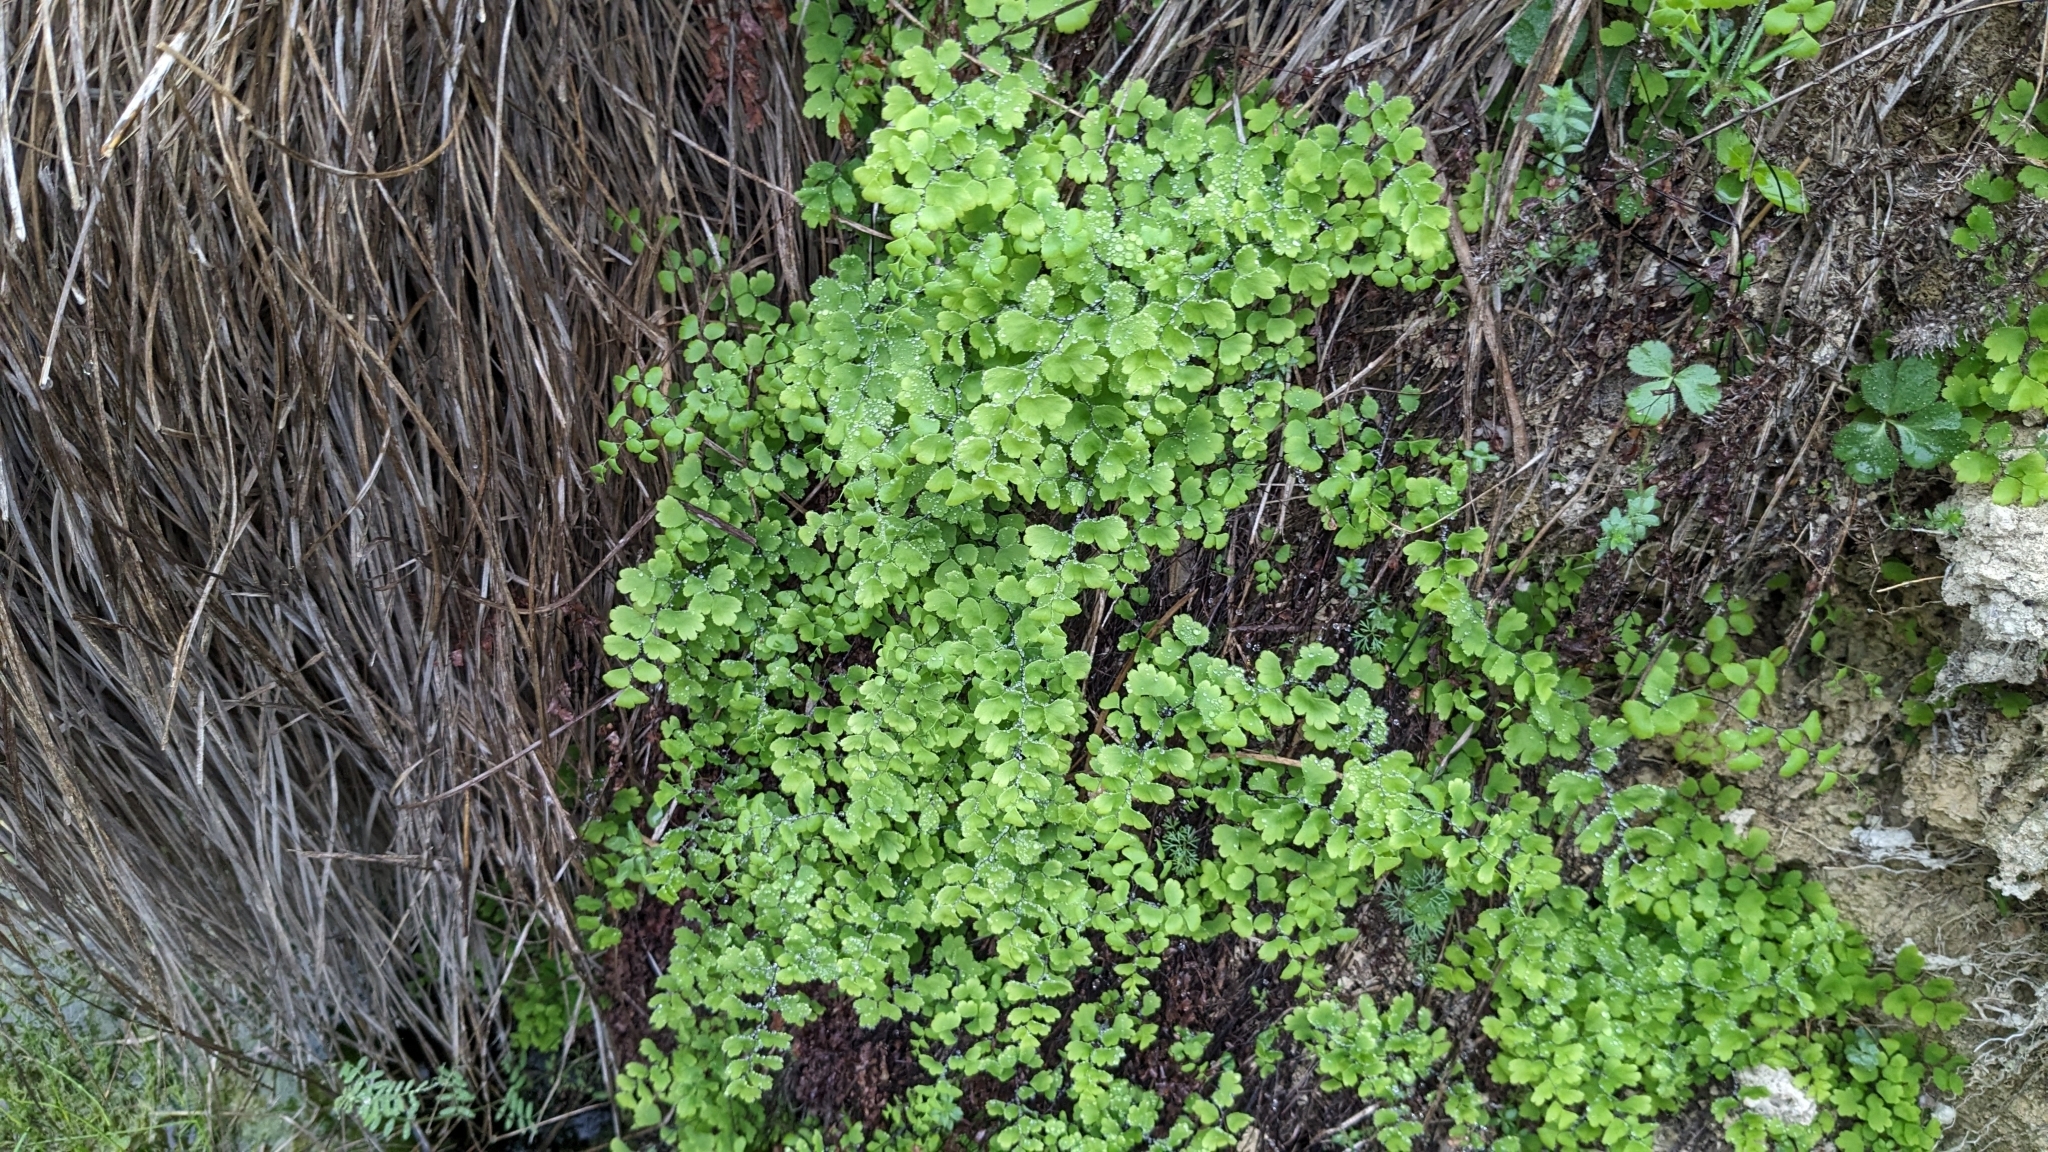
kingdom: Plantae
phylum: Tracheophyta
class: Polypodiopsida
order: Polypodiales
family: Pteridaceae
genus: Adiantum
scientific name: Adiantum capillus-veneris
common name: Maidenhair fern
